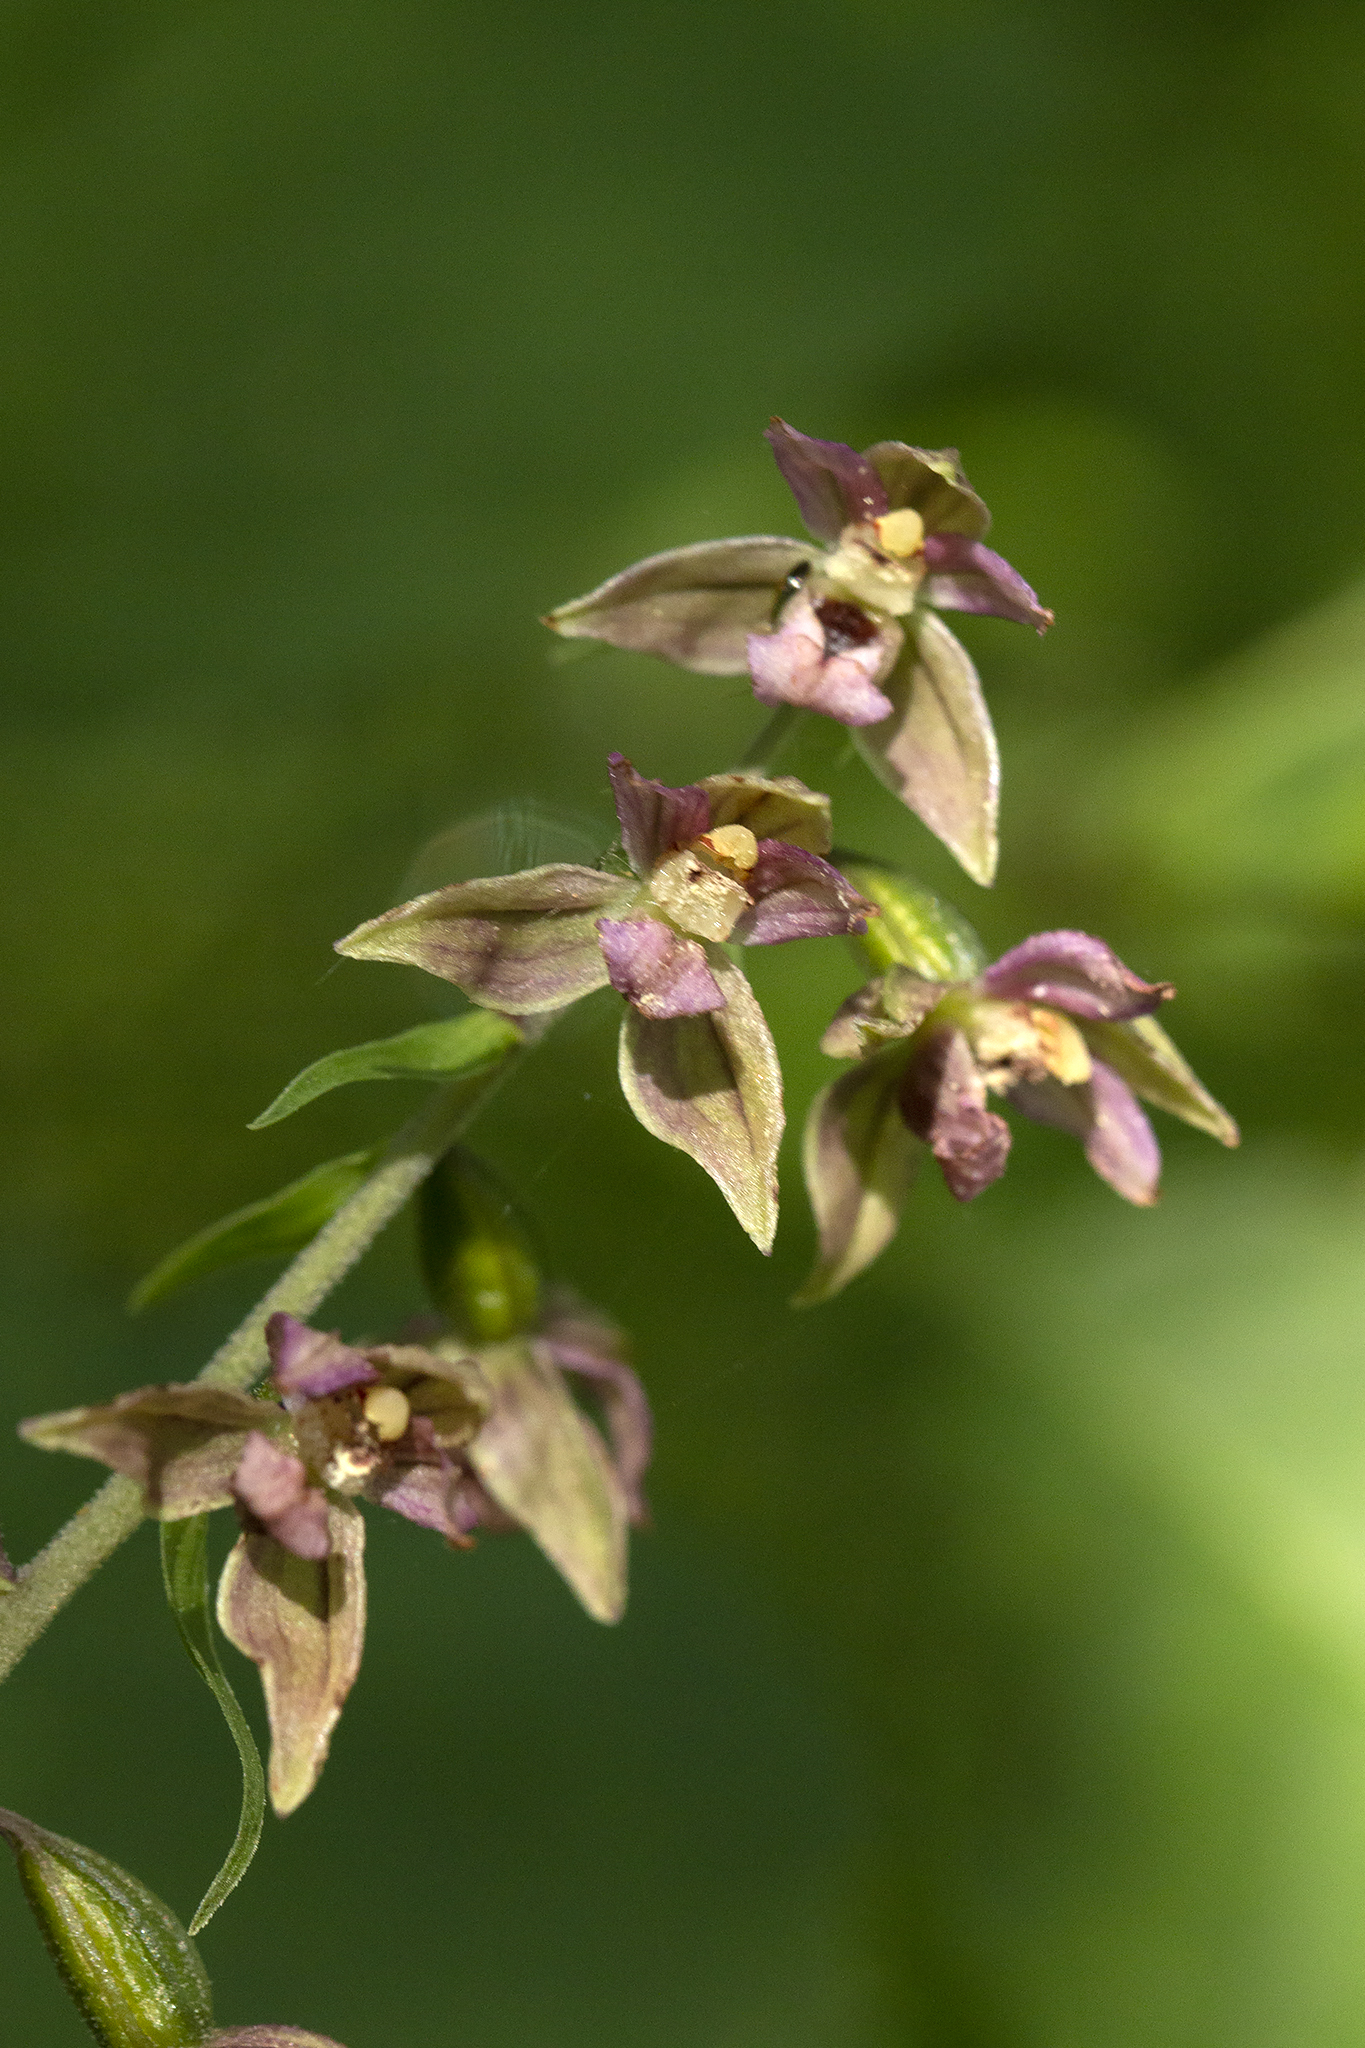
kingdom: Plantae
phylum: Tracheophyta
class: Liliopsida
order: Asparagales
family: Orchidaceae
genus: Epipactis
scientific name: Epipactis helleborine
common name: Broad-leaved helleborine
